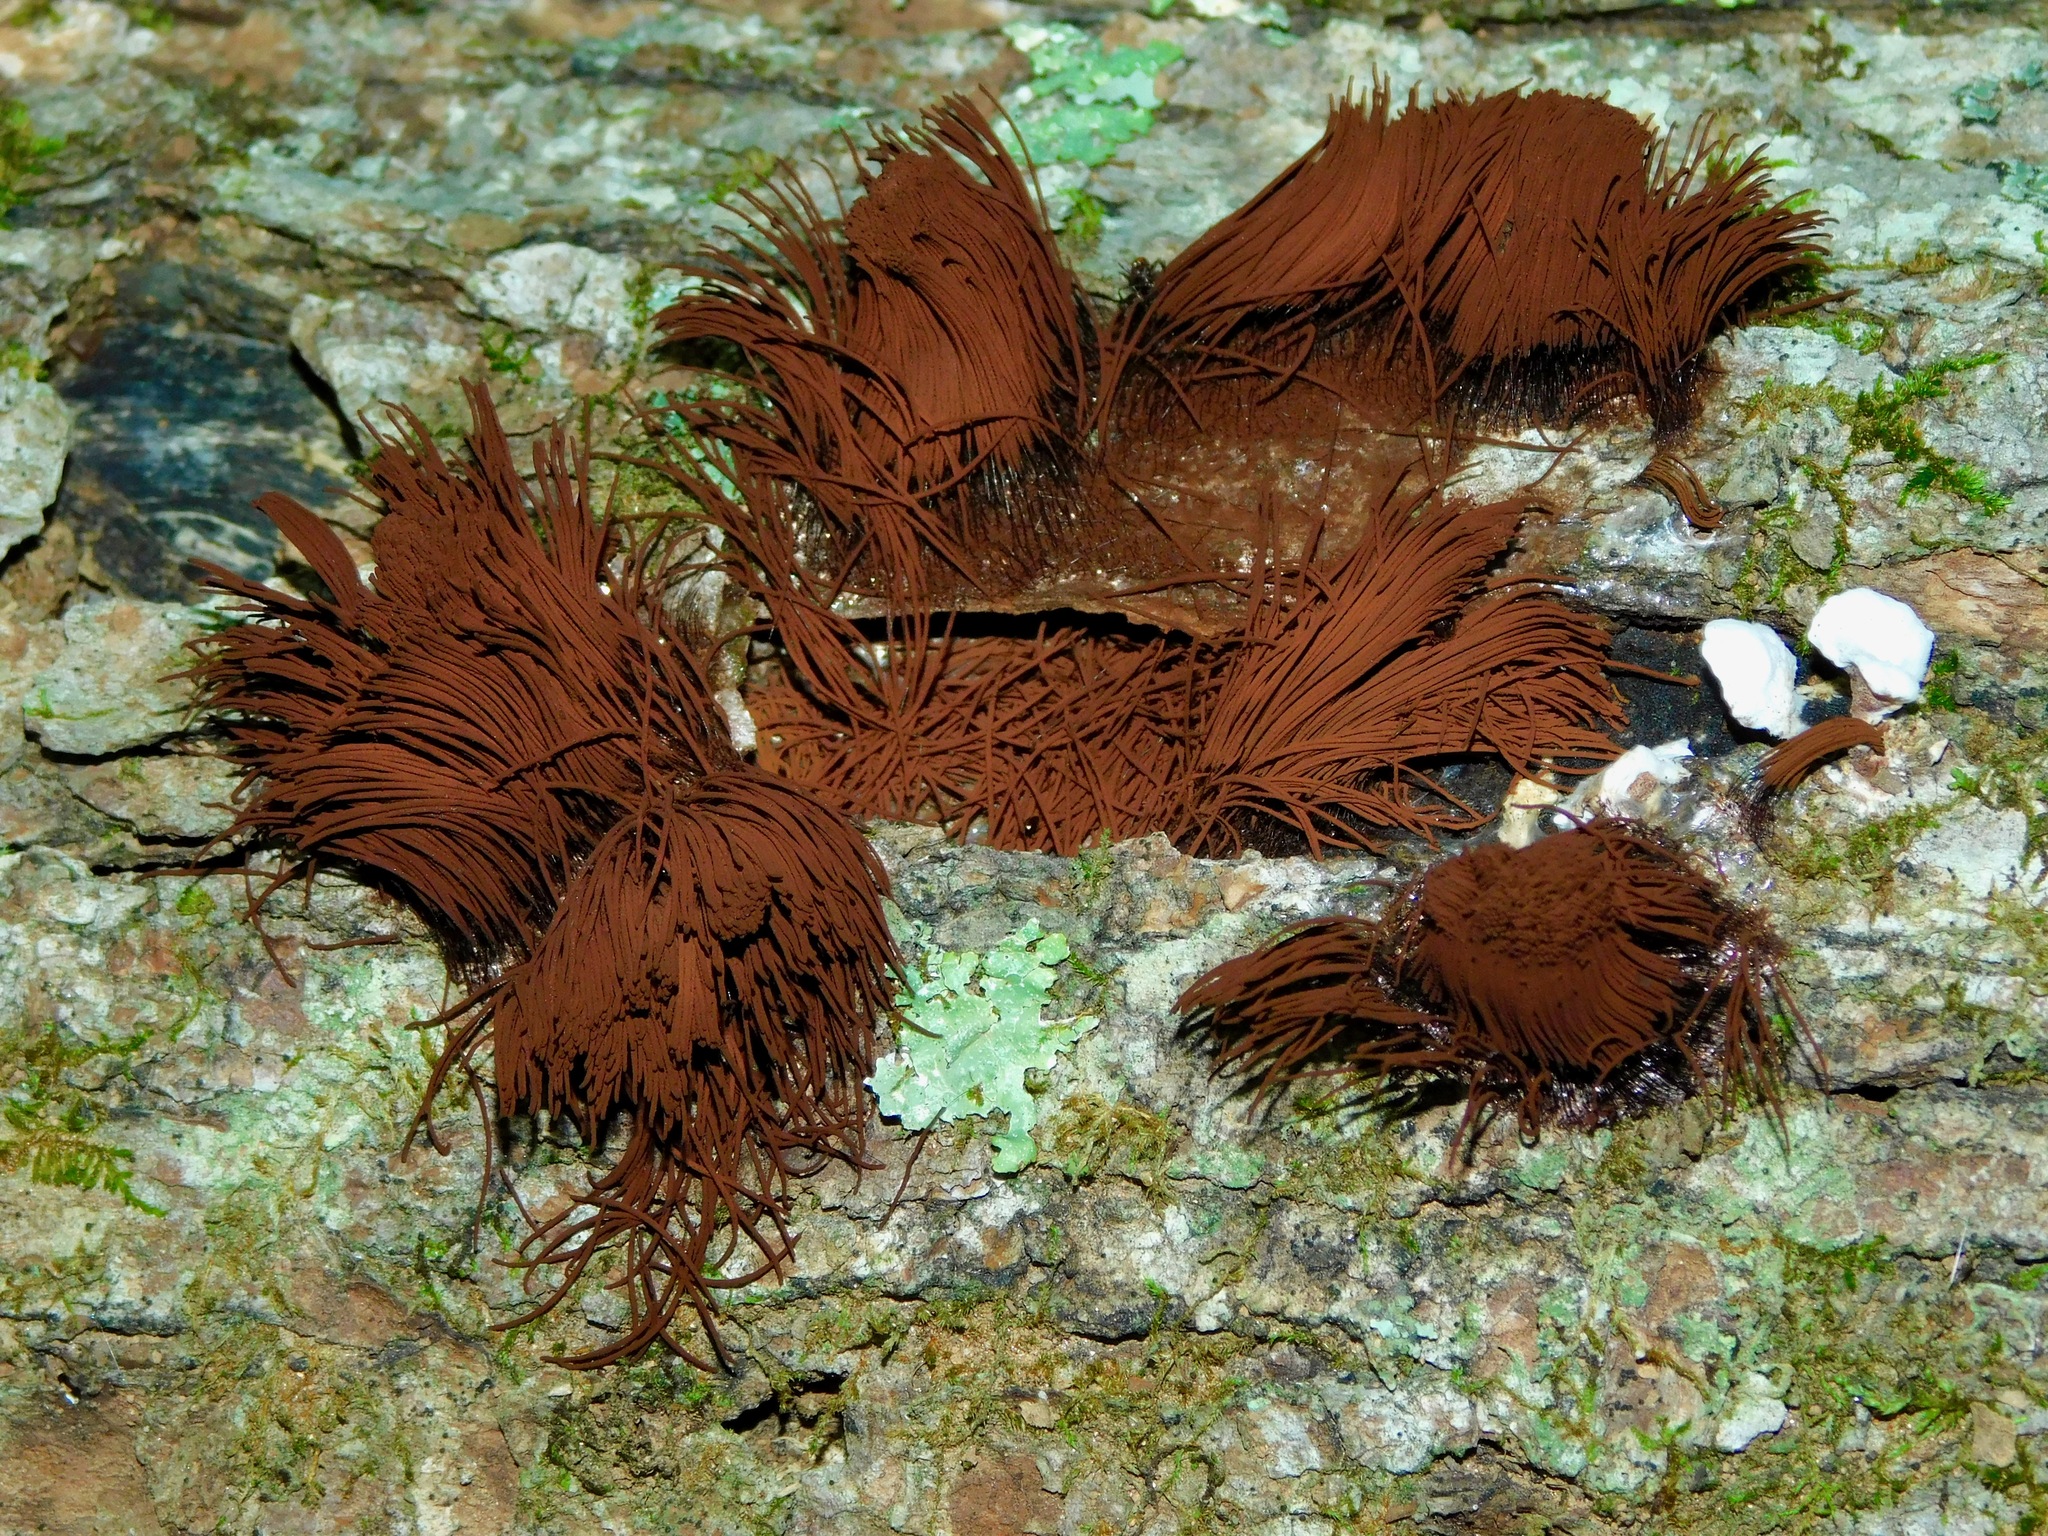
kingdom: Protozoa
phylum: Mycetozoa
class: Myxomycetes
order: Stemonitidales
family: Stemonitidaceae
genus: Stemonitis
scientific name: Stemonitis axifera
